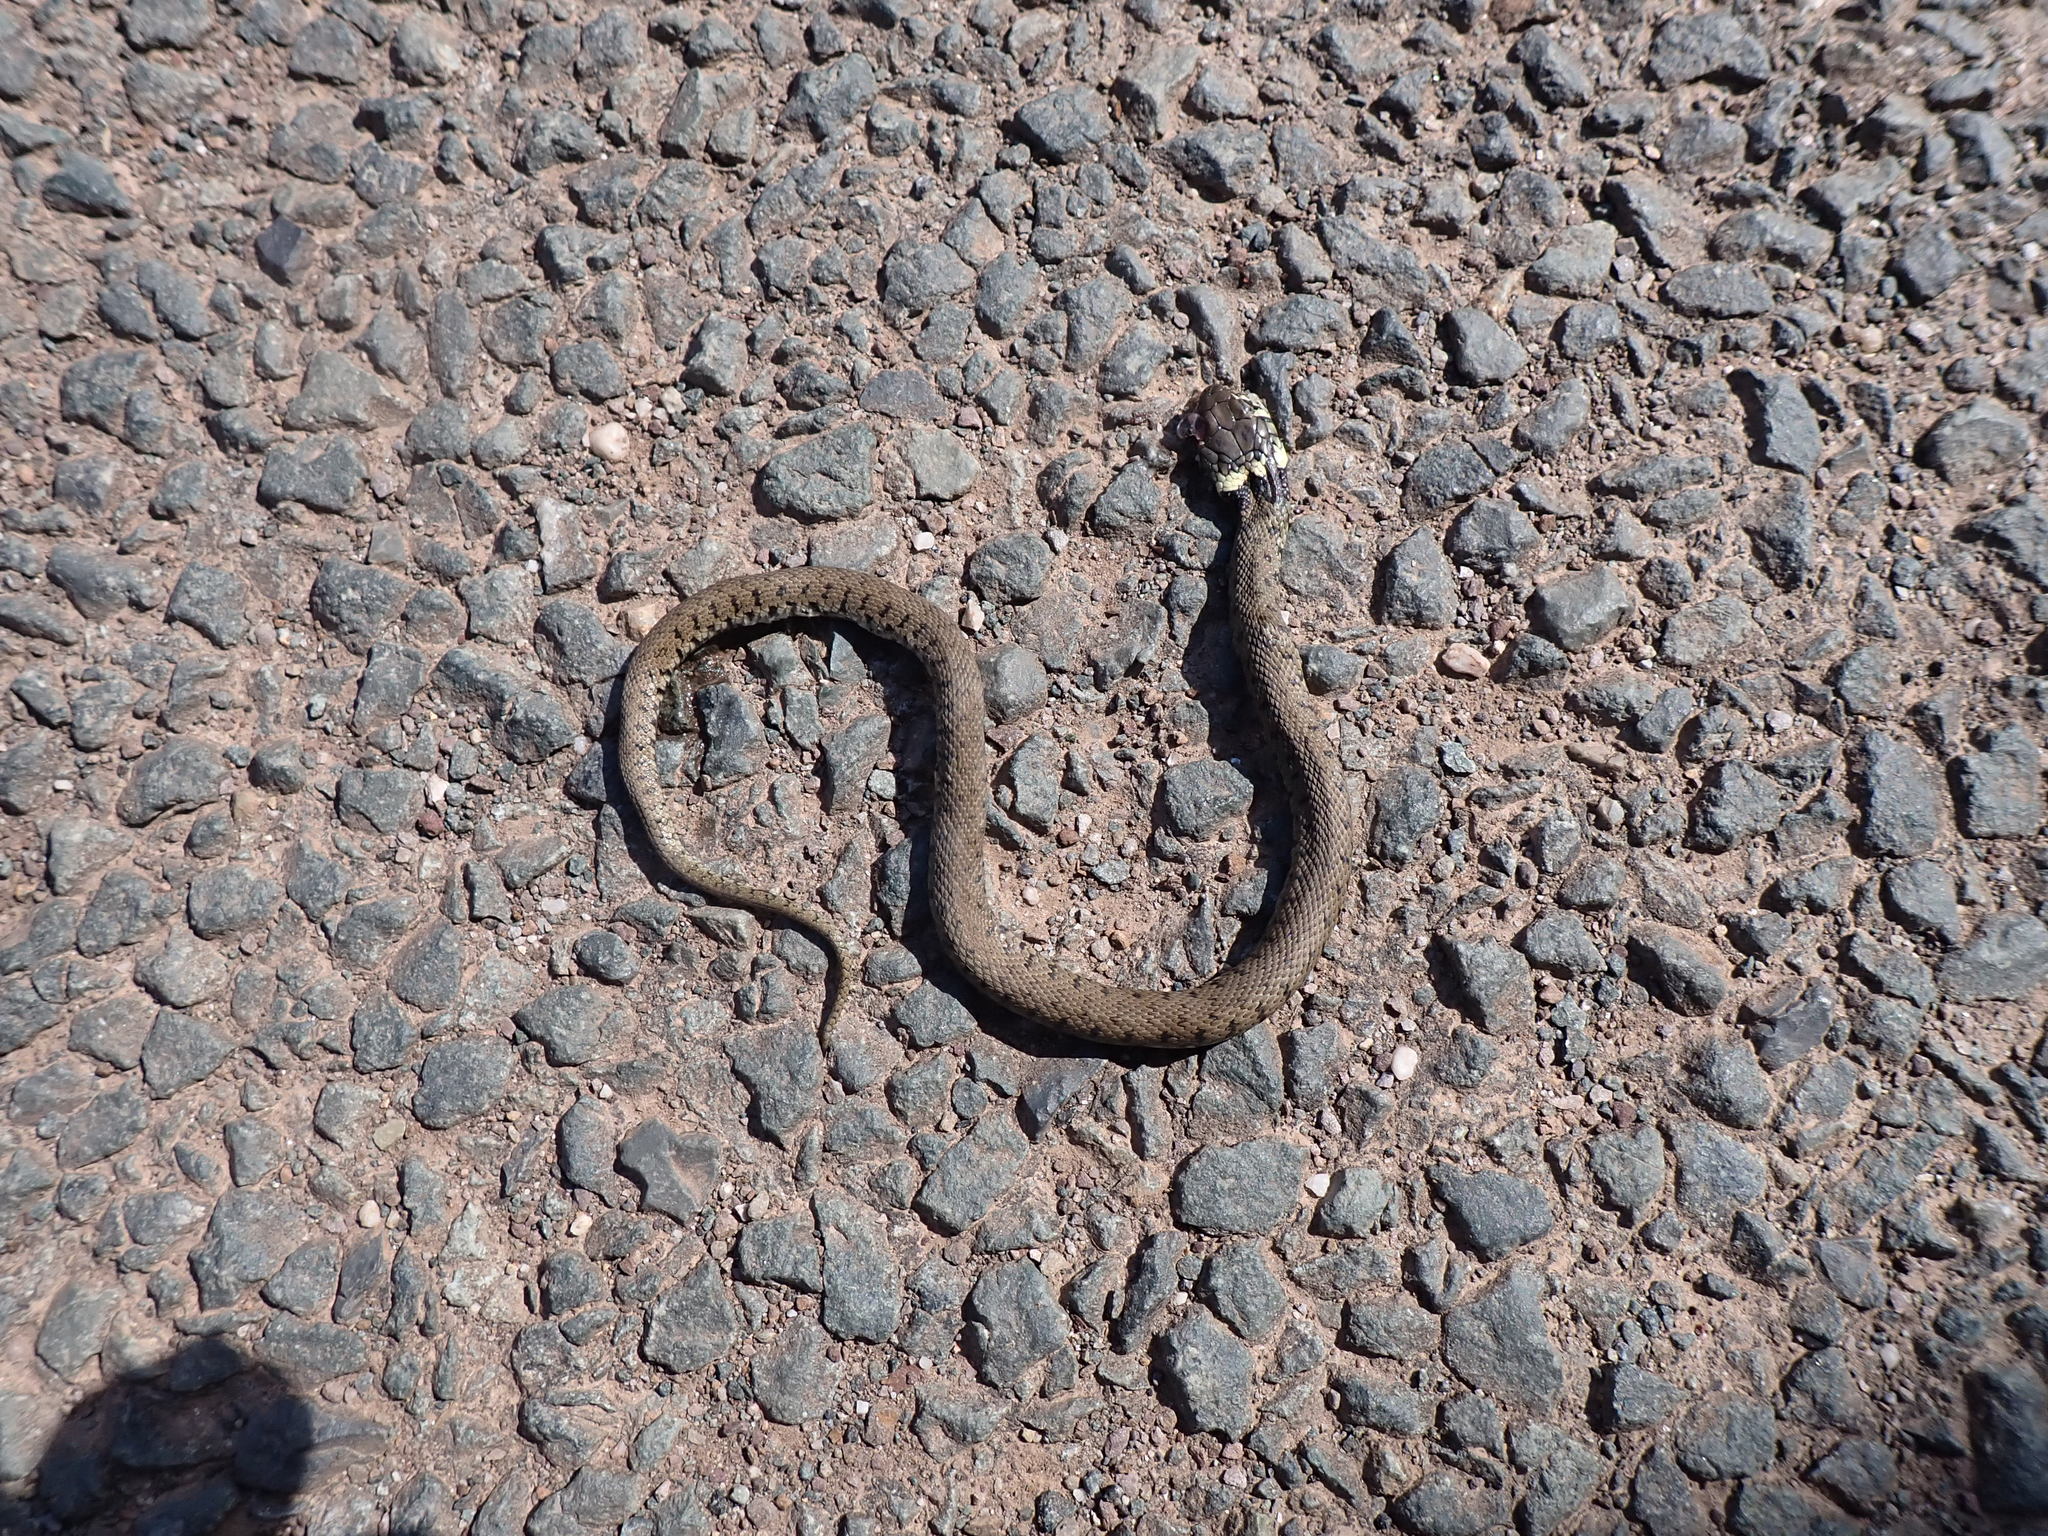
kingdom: Animalia
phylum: Chordata
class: Squamata
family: Colubridae
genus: Natrix
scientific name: Natrix helvetica
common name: Banded grass snake
